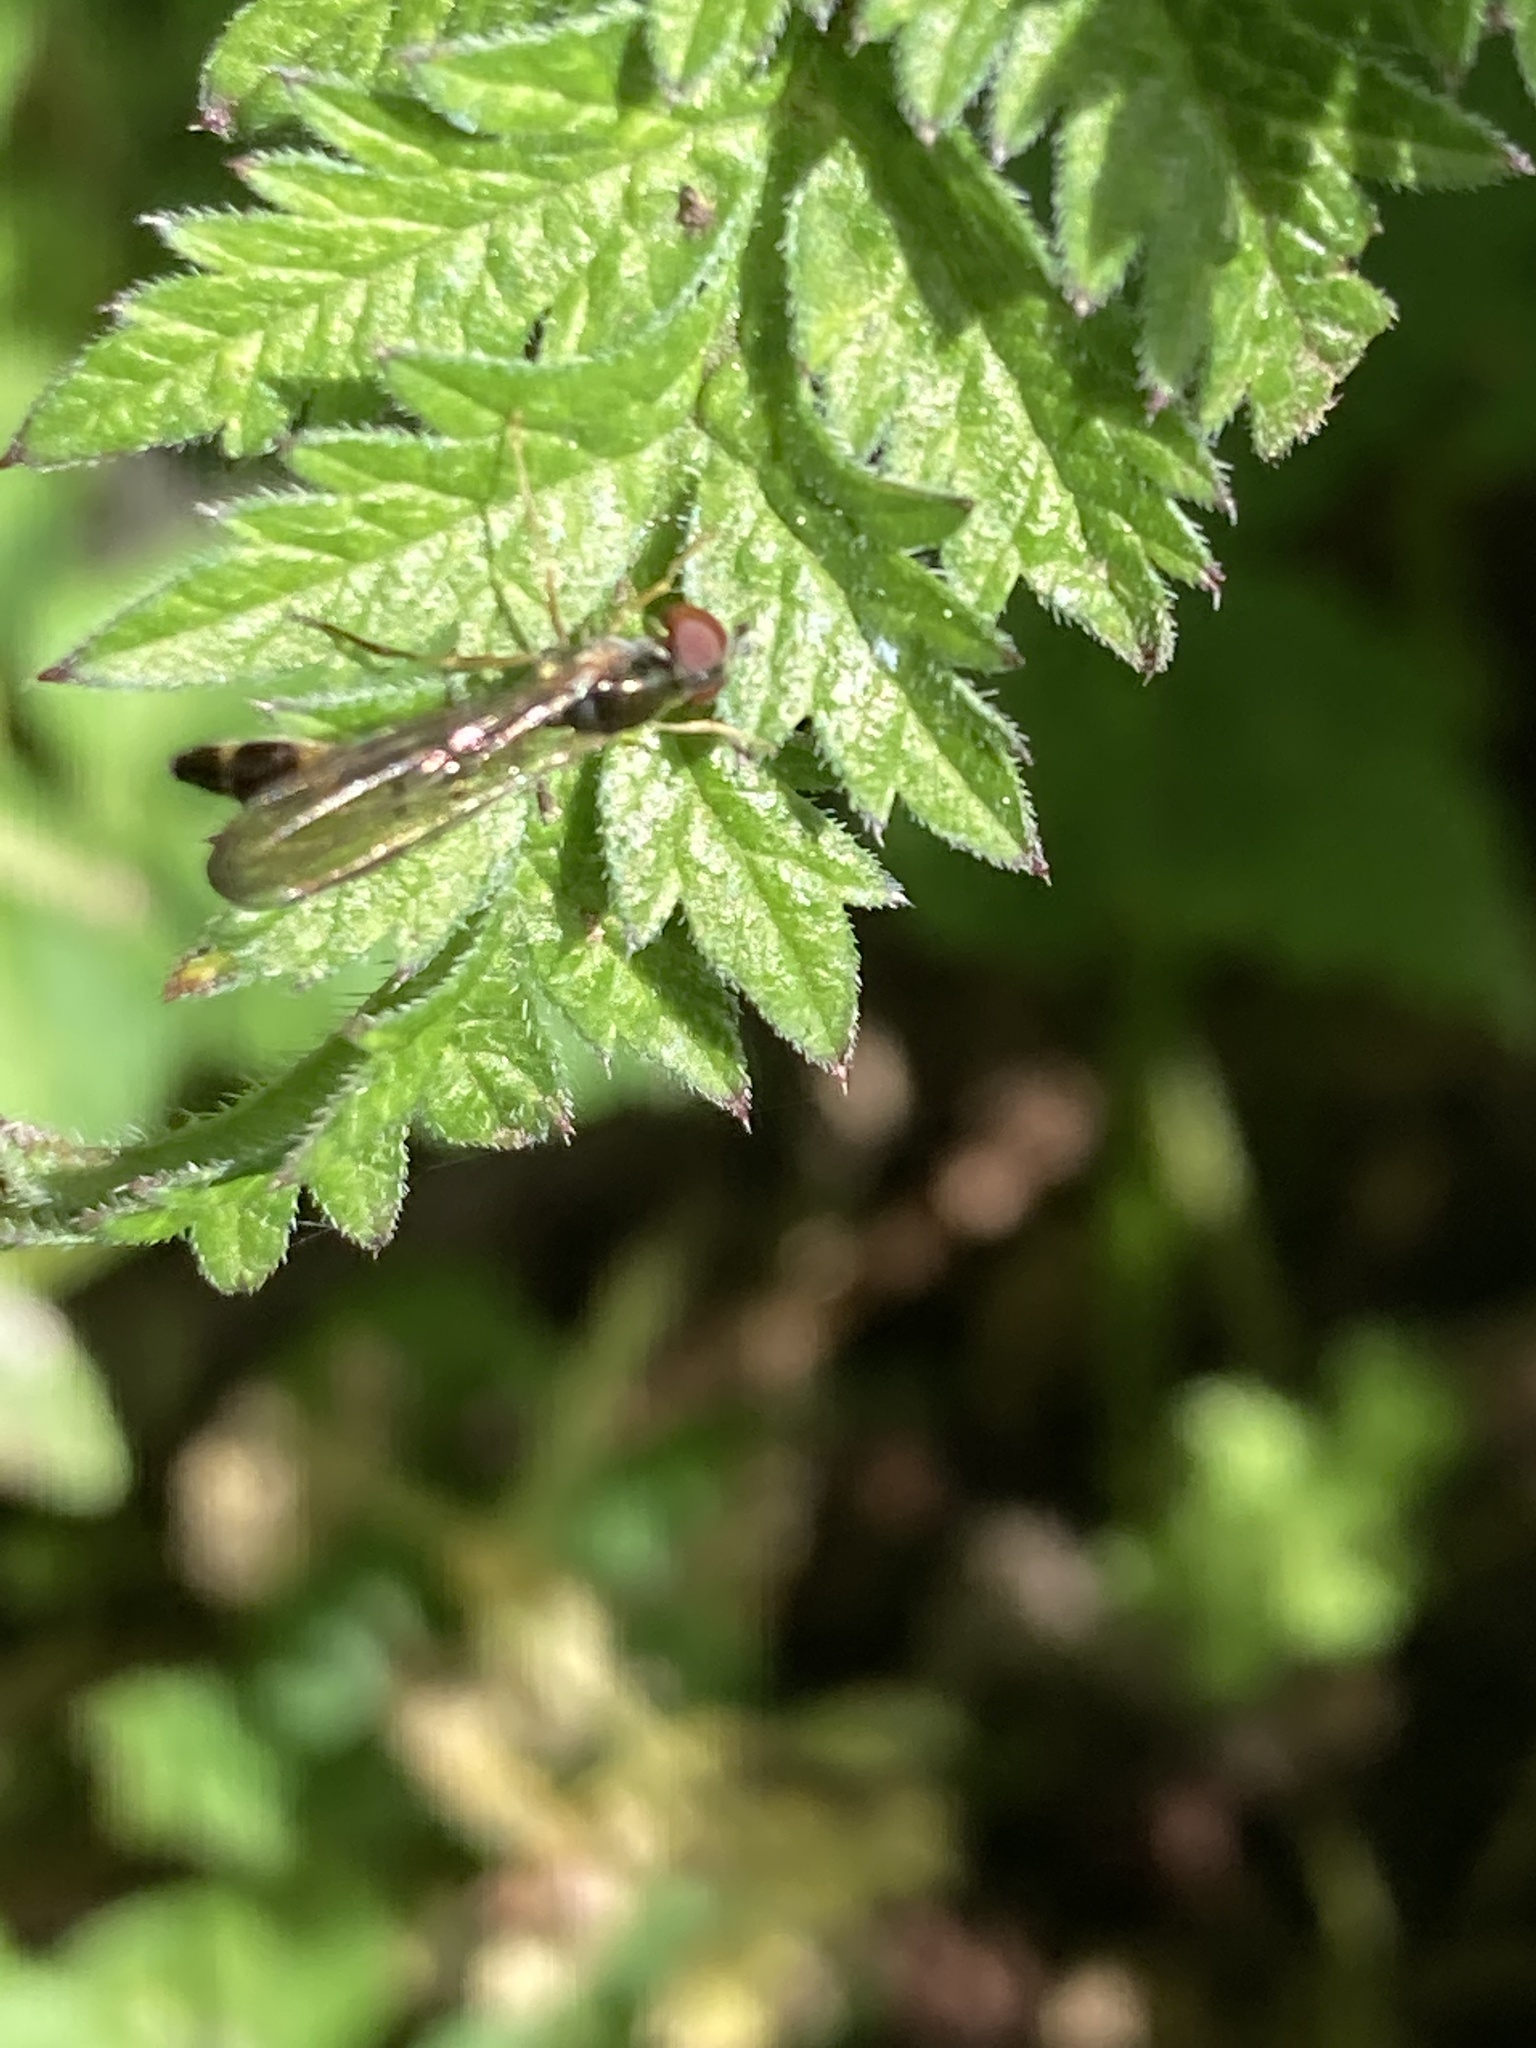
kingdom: Animalia
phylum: Arthropoda
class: Insecta
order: Diptera
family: Syrphidae
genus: Baccha
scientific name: Baccha elongata
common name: Common dainty
